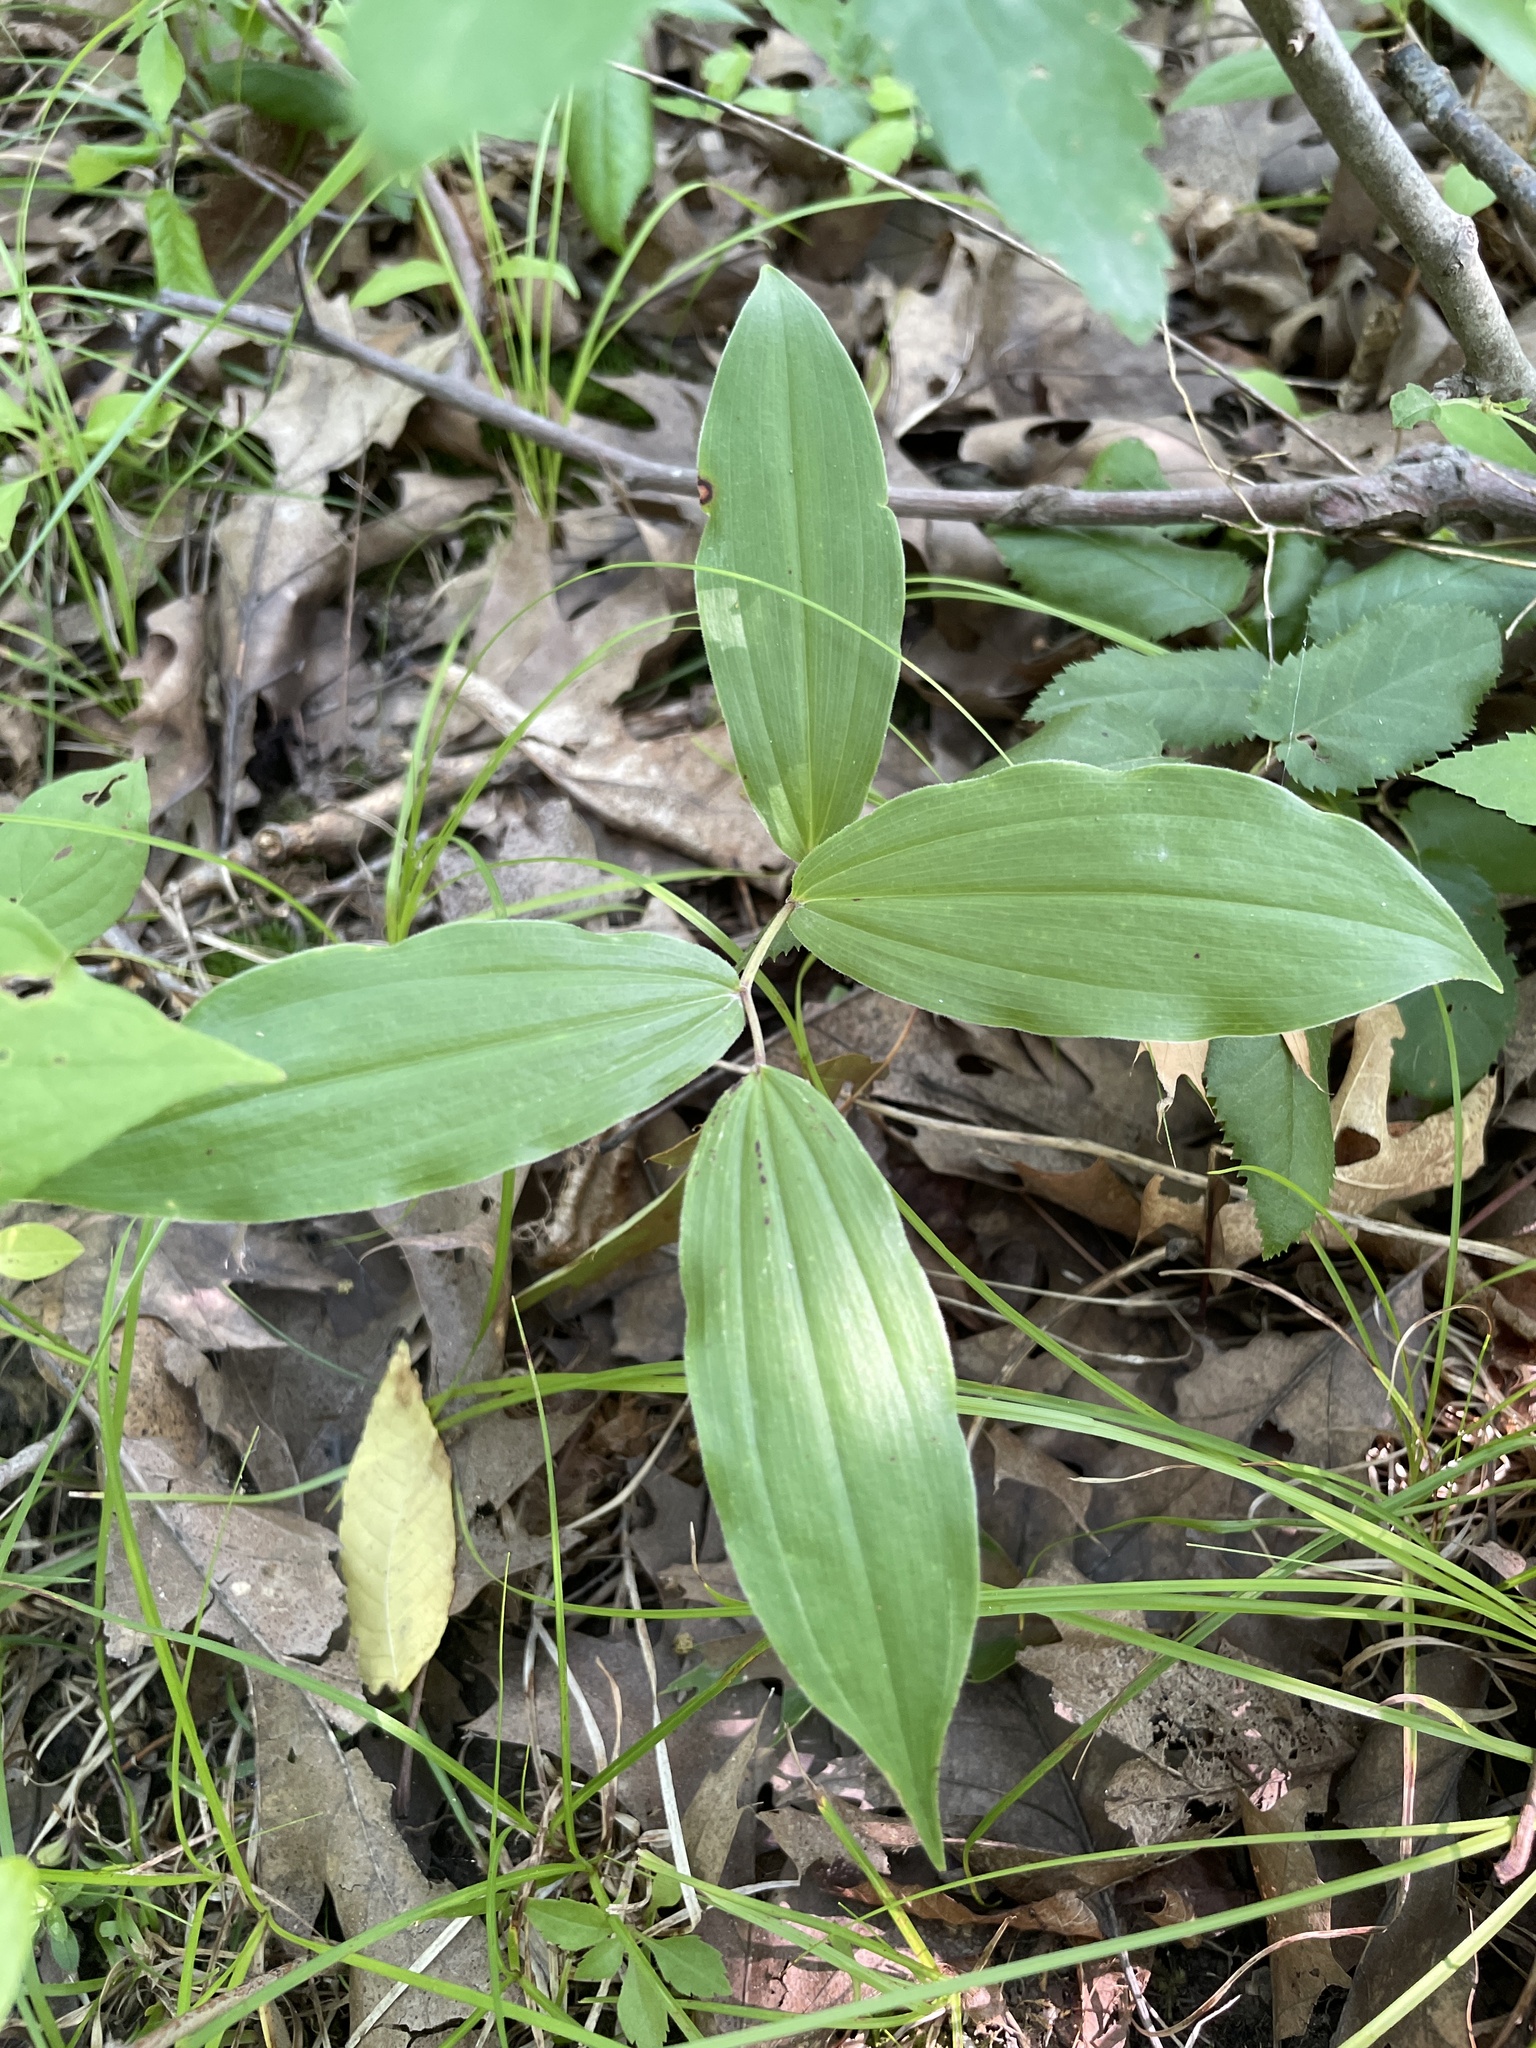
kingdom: Plantae
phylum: Tracheophyta
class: Liliopsida
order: Asparagales
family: Asparagaceae
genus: Maianthemum
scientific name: Maianthemum racemosum
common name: False spikenard
